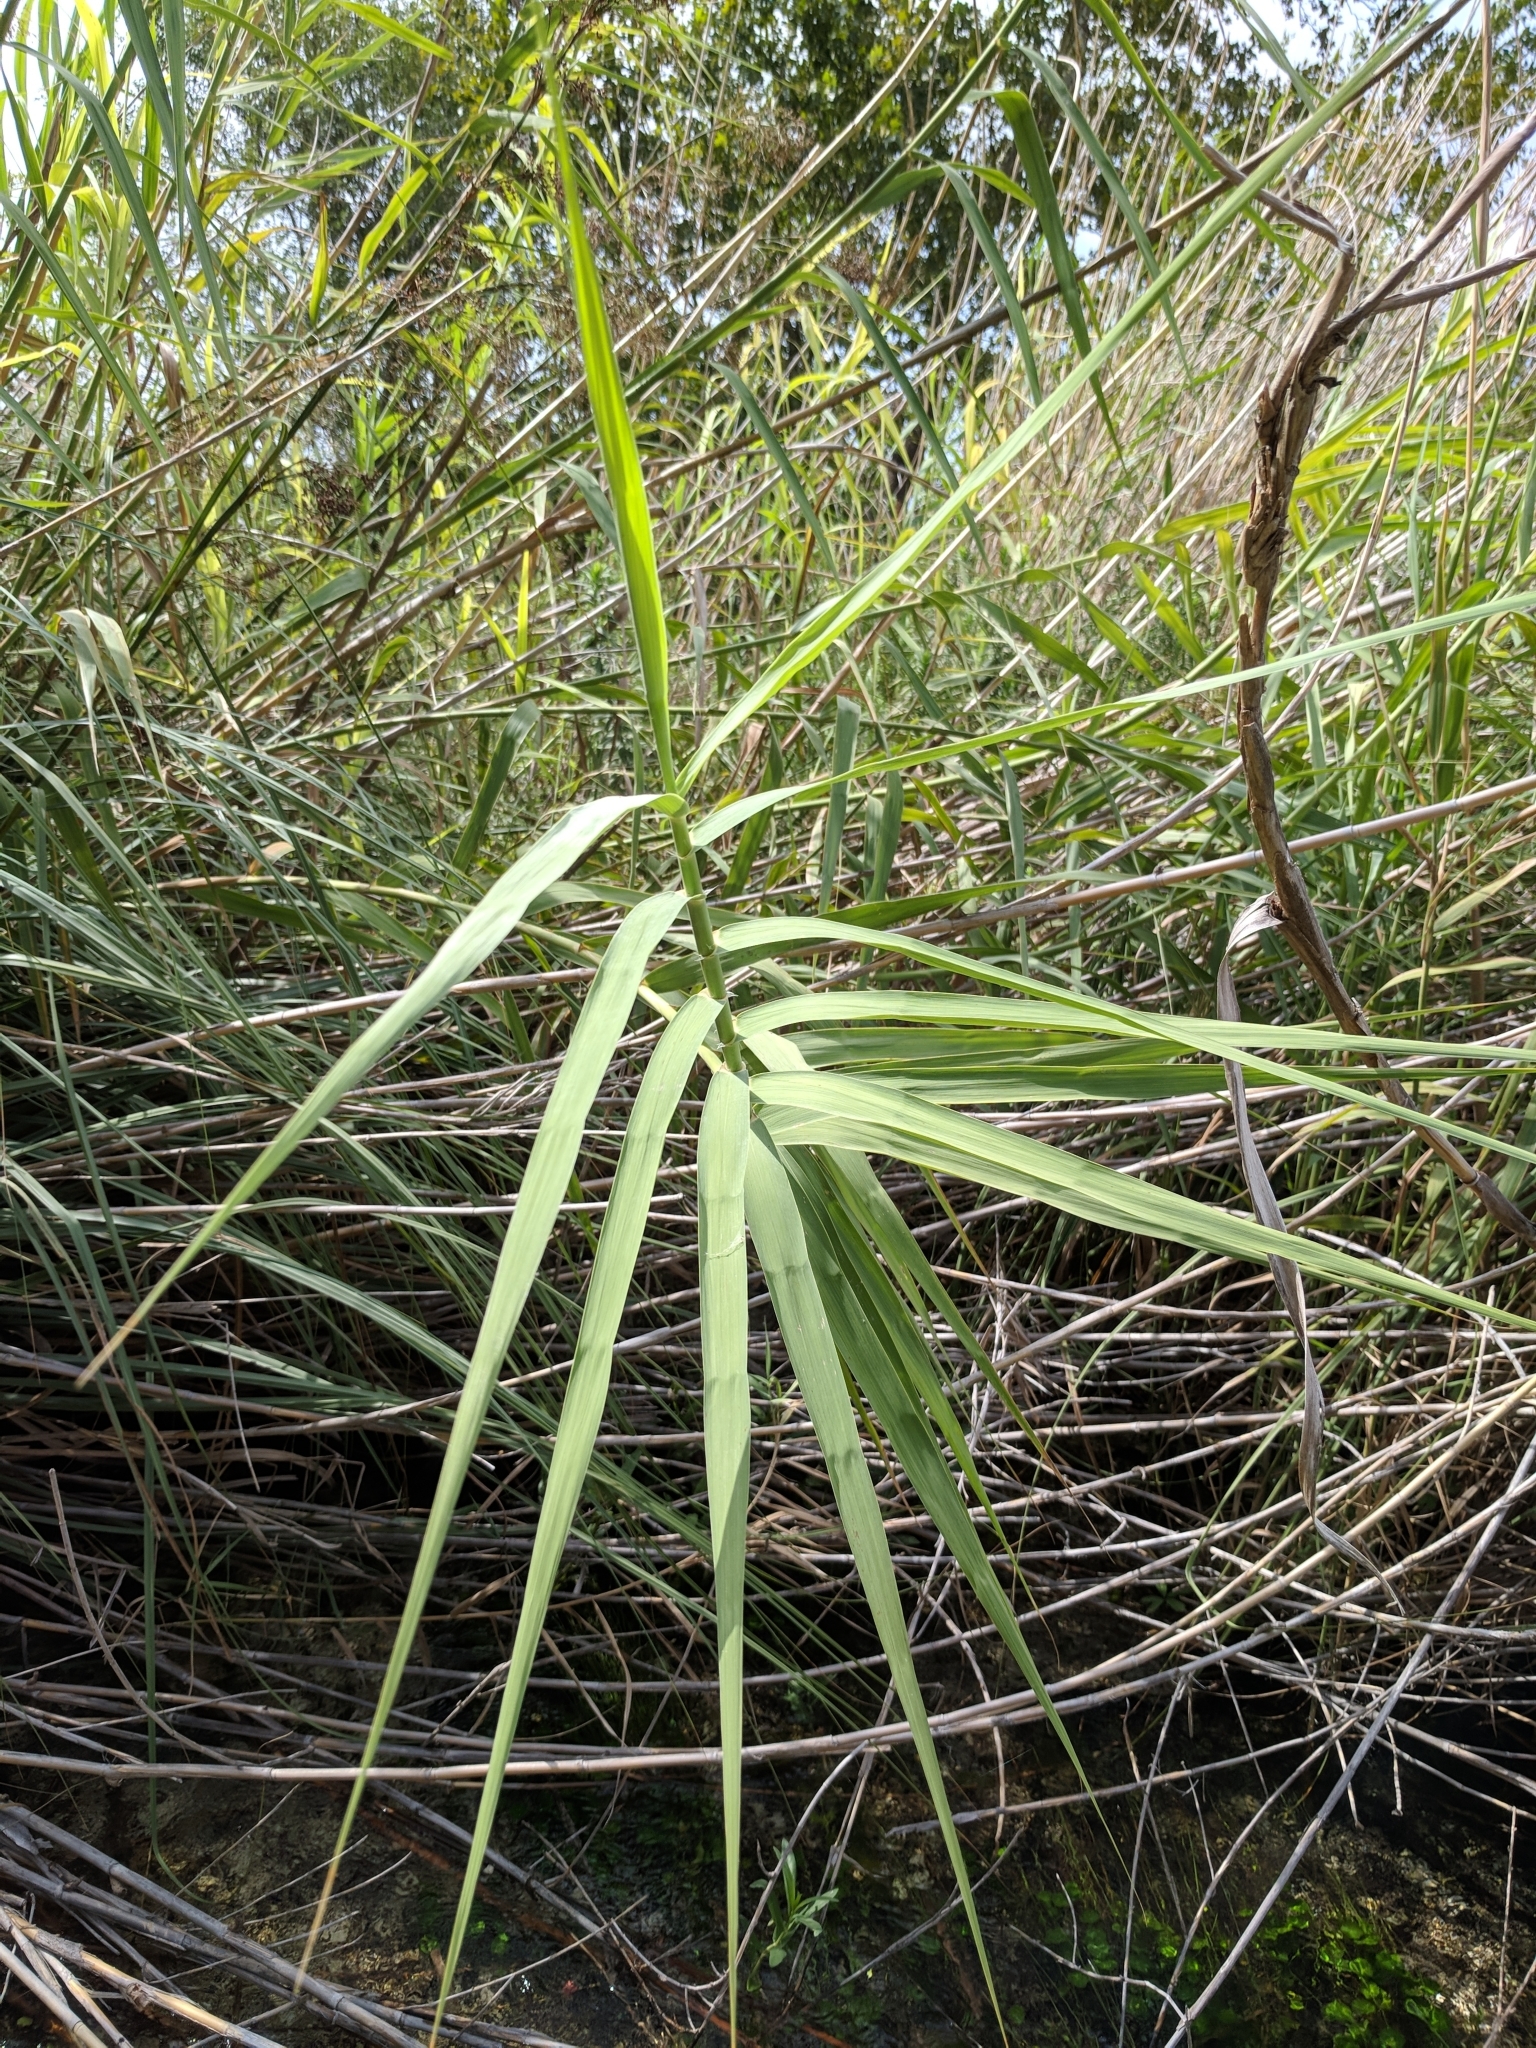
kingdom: Plantae
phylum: Tracheophyta
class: Liliopsida
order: Poales
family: Poaceae
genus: Arundo
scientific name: Arundo donax
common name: Giant reed
